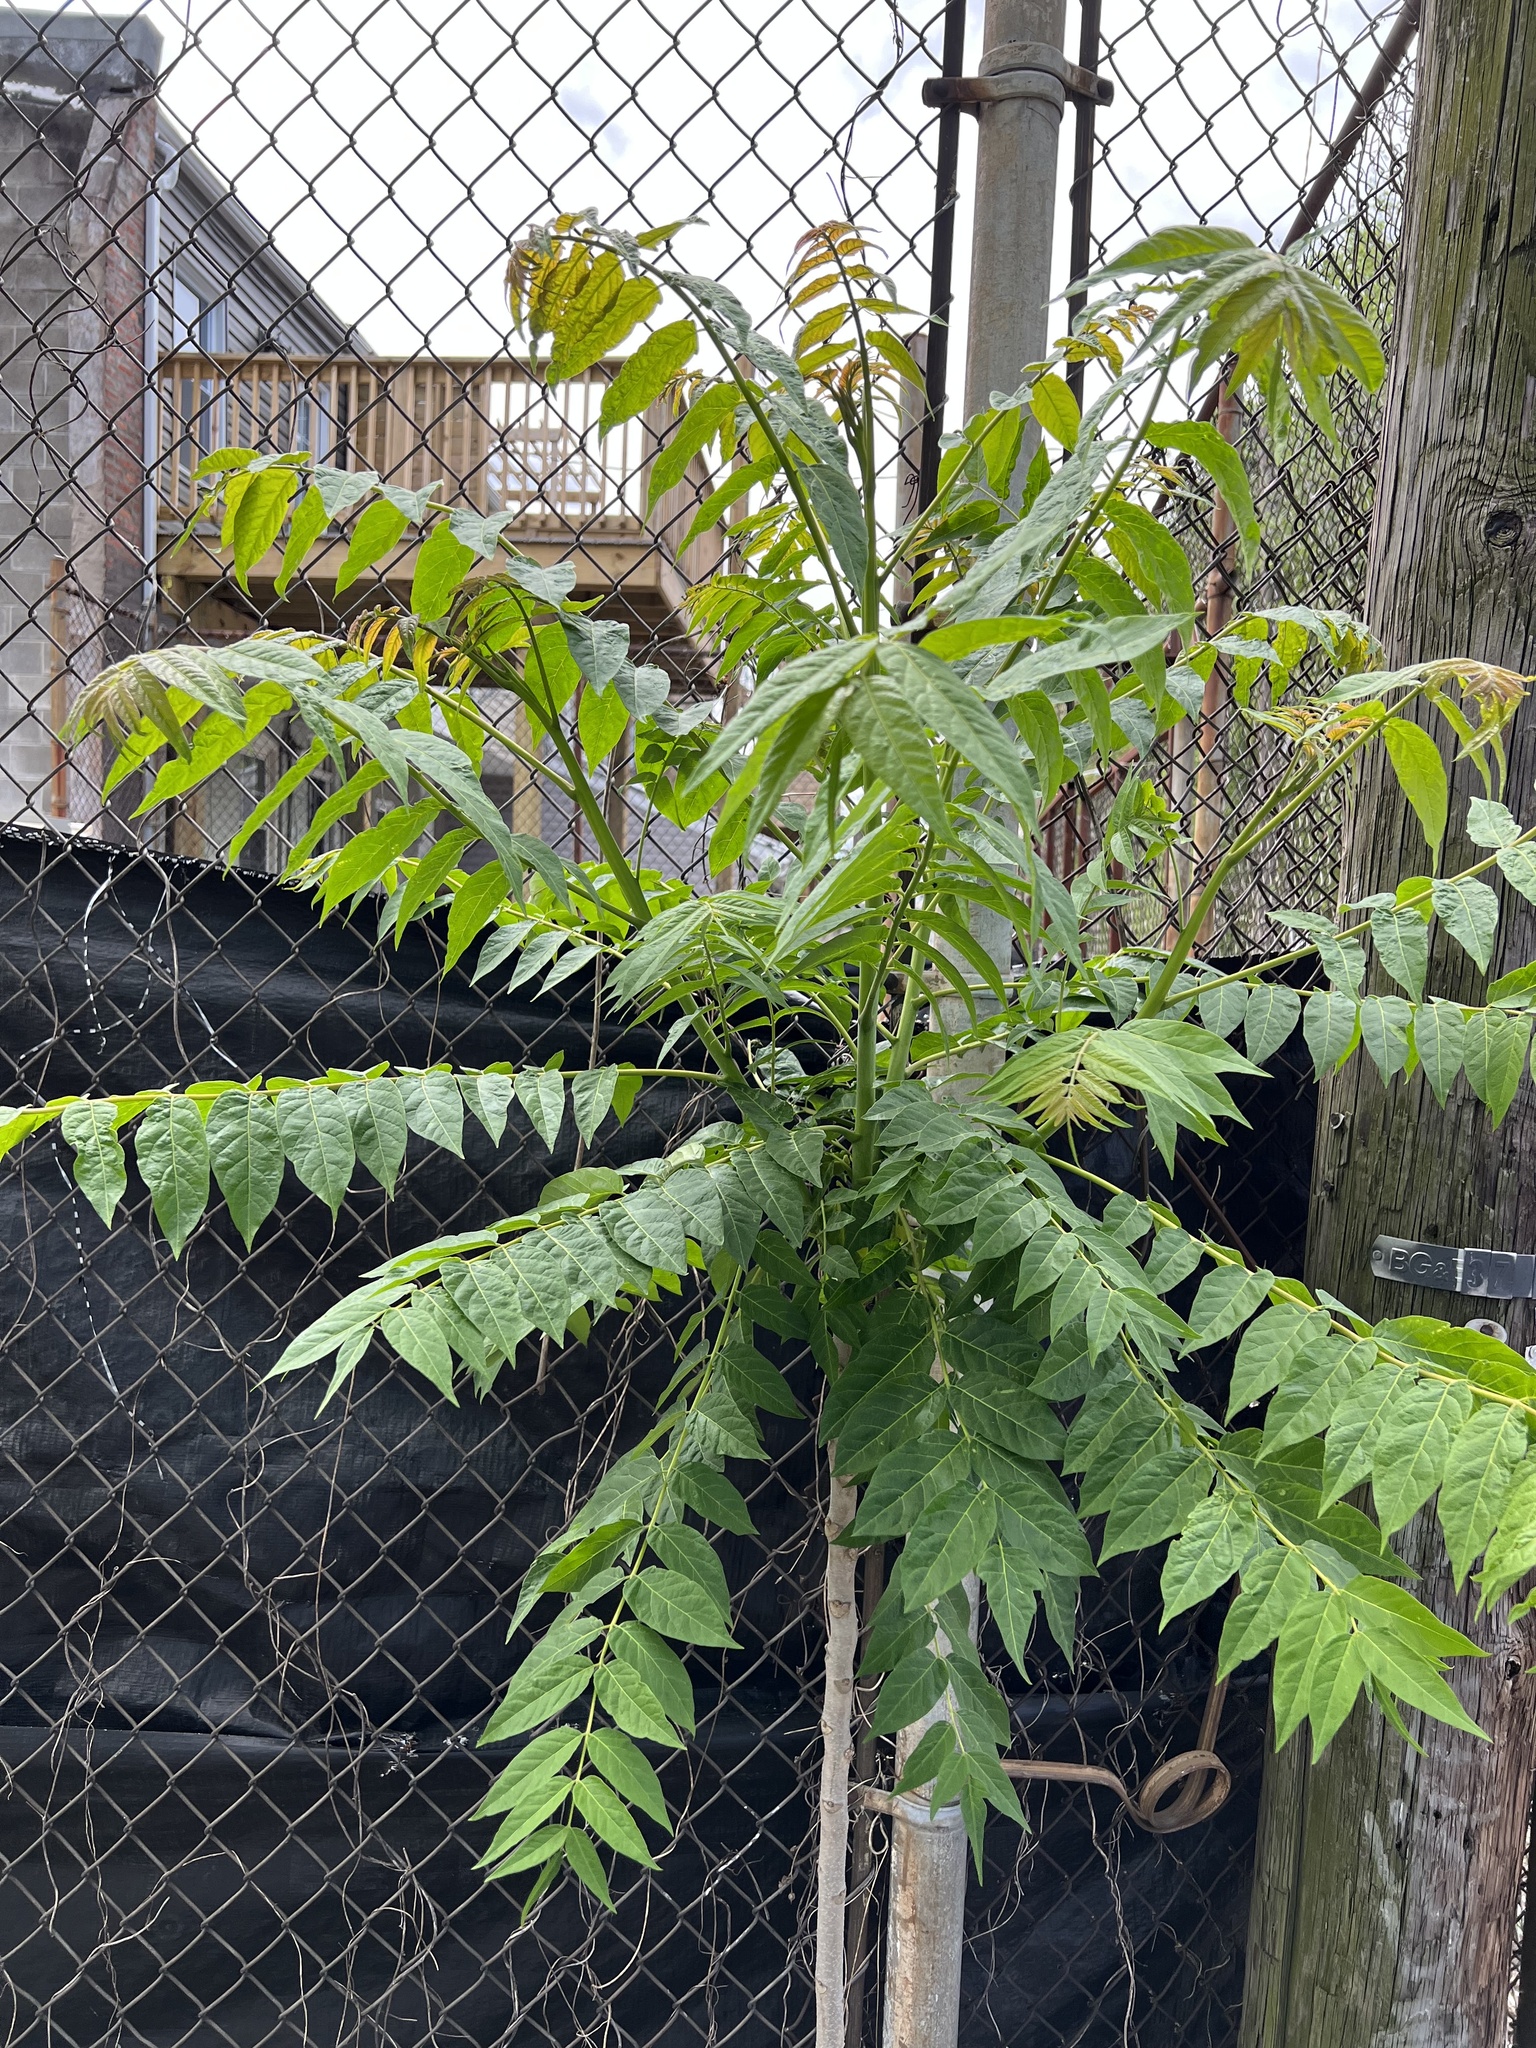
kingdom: Plantae
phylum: Tracheophyta
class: Magnoliopsida
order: Sapindales
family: Simaroubaceae
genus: Ailanthus
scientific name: Ailanthus altissima
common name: Tree-of-heaven
